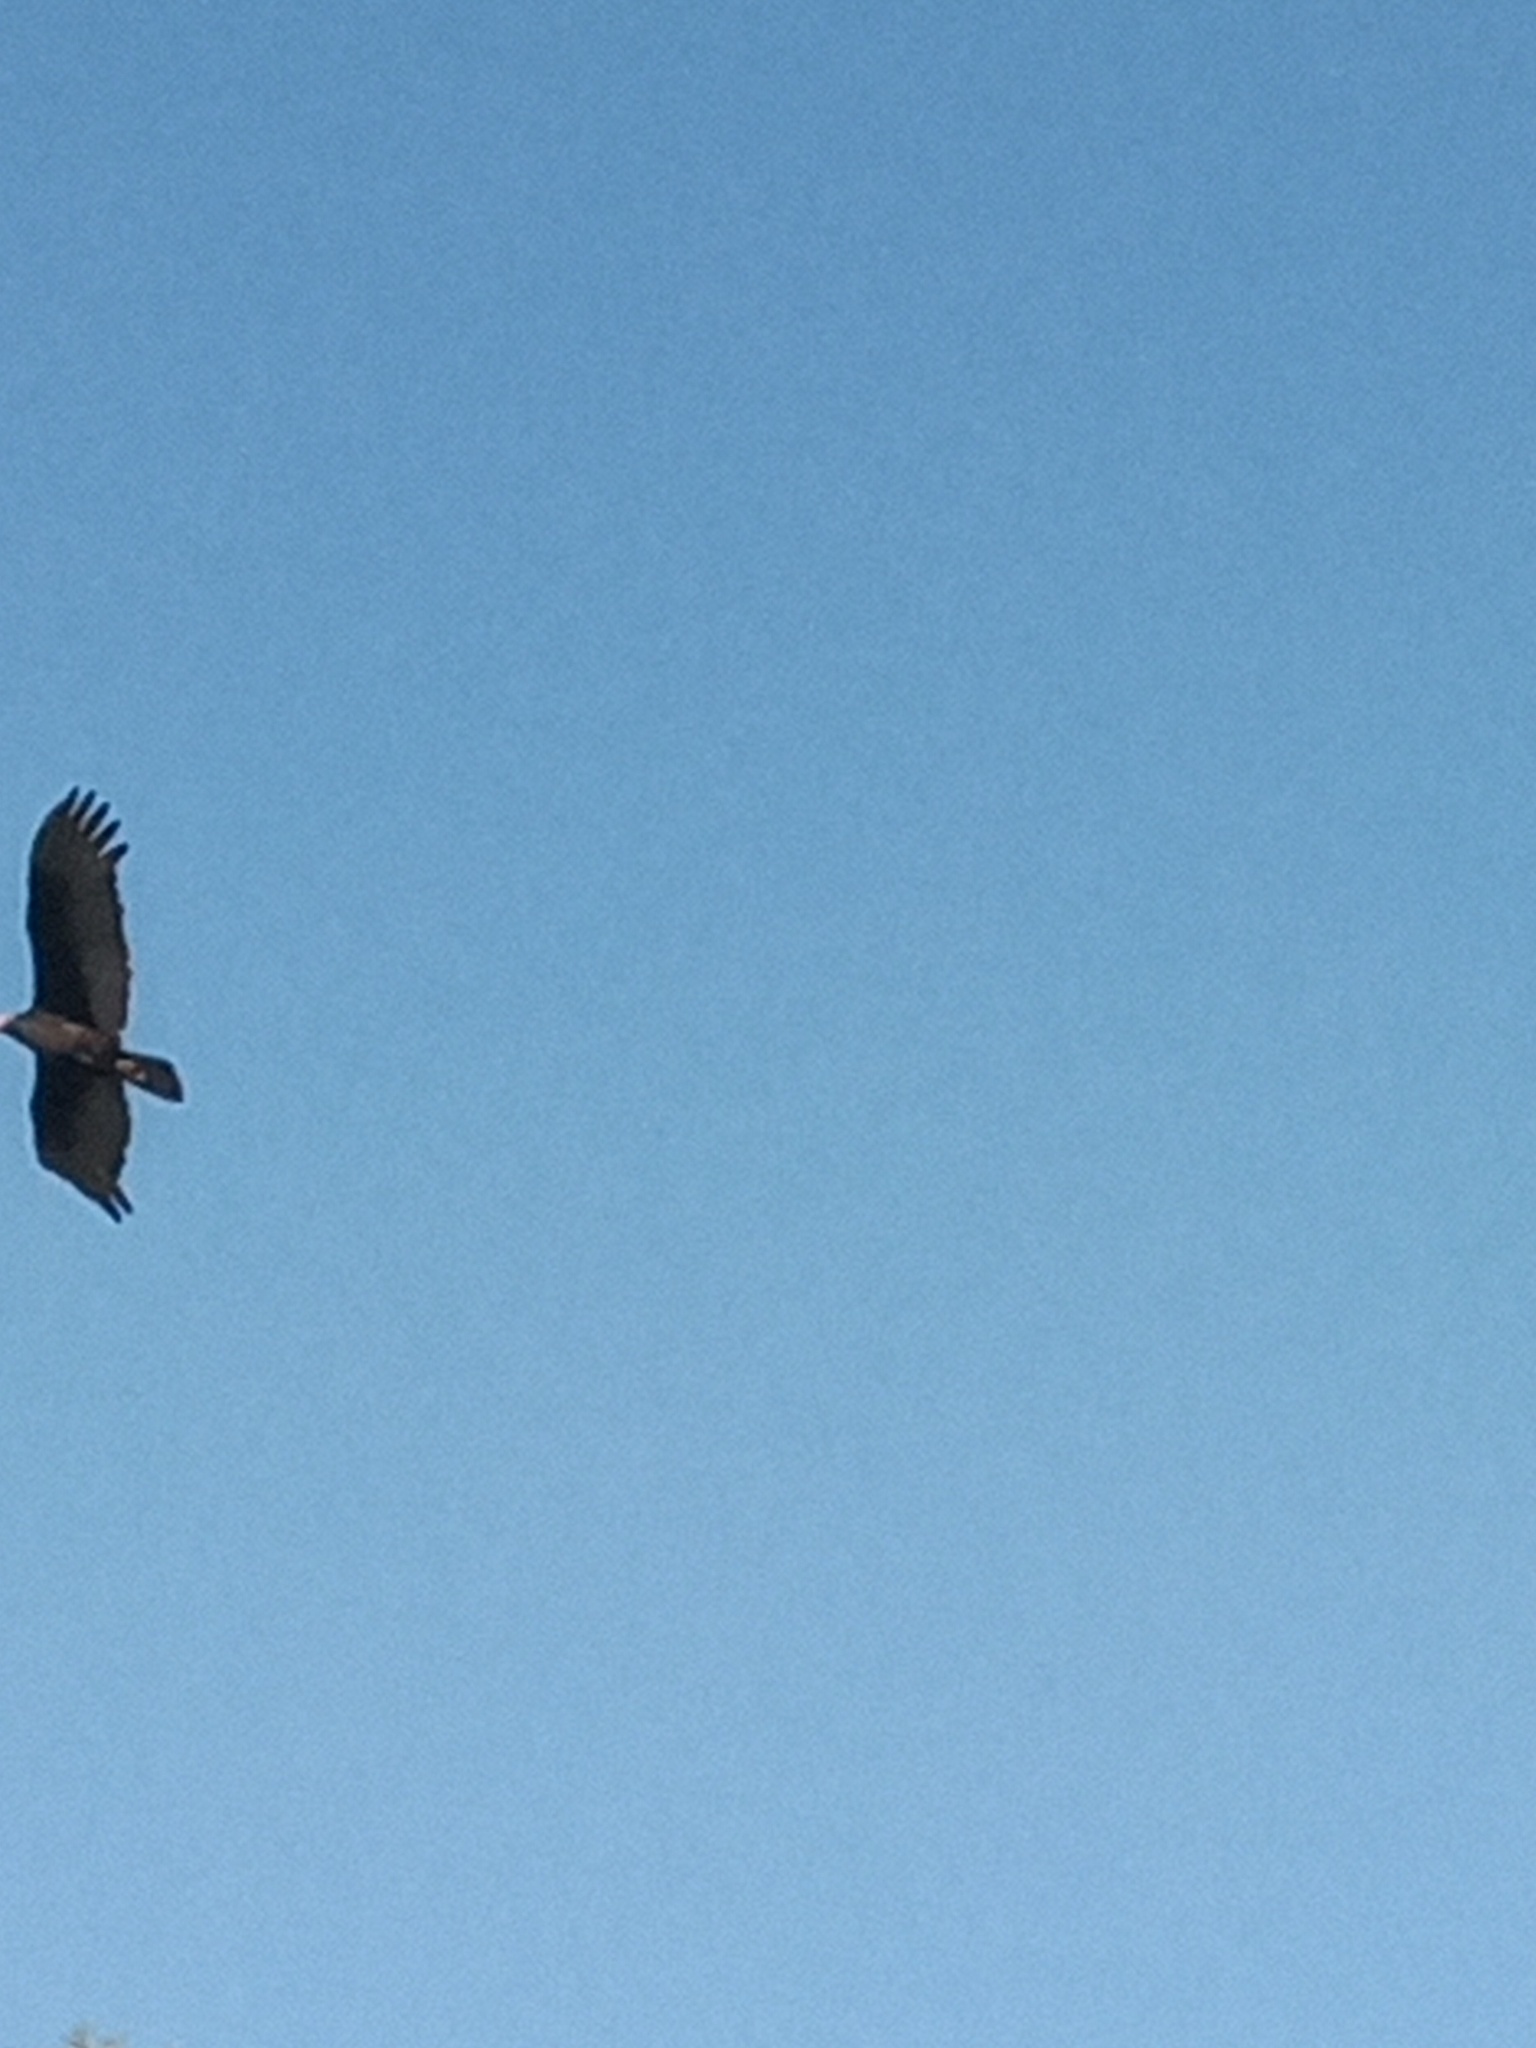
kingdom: Animalia
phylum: Chordata
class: Aves
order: Accipitriformes
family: Cathartidae
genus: Cathartes
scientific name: Cathartes aura
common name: Turkey vulture
